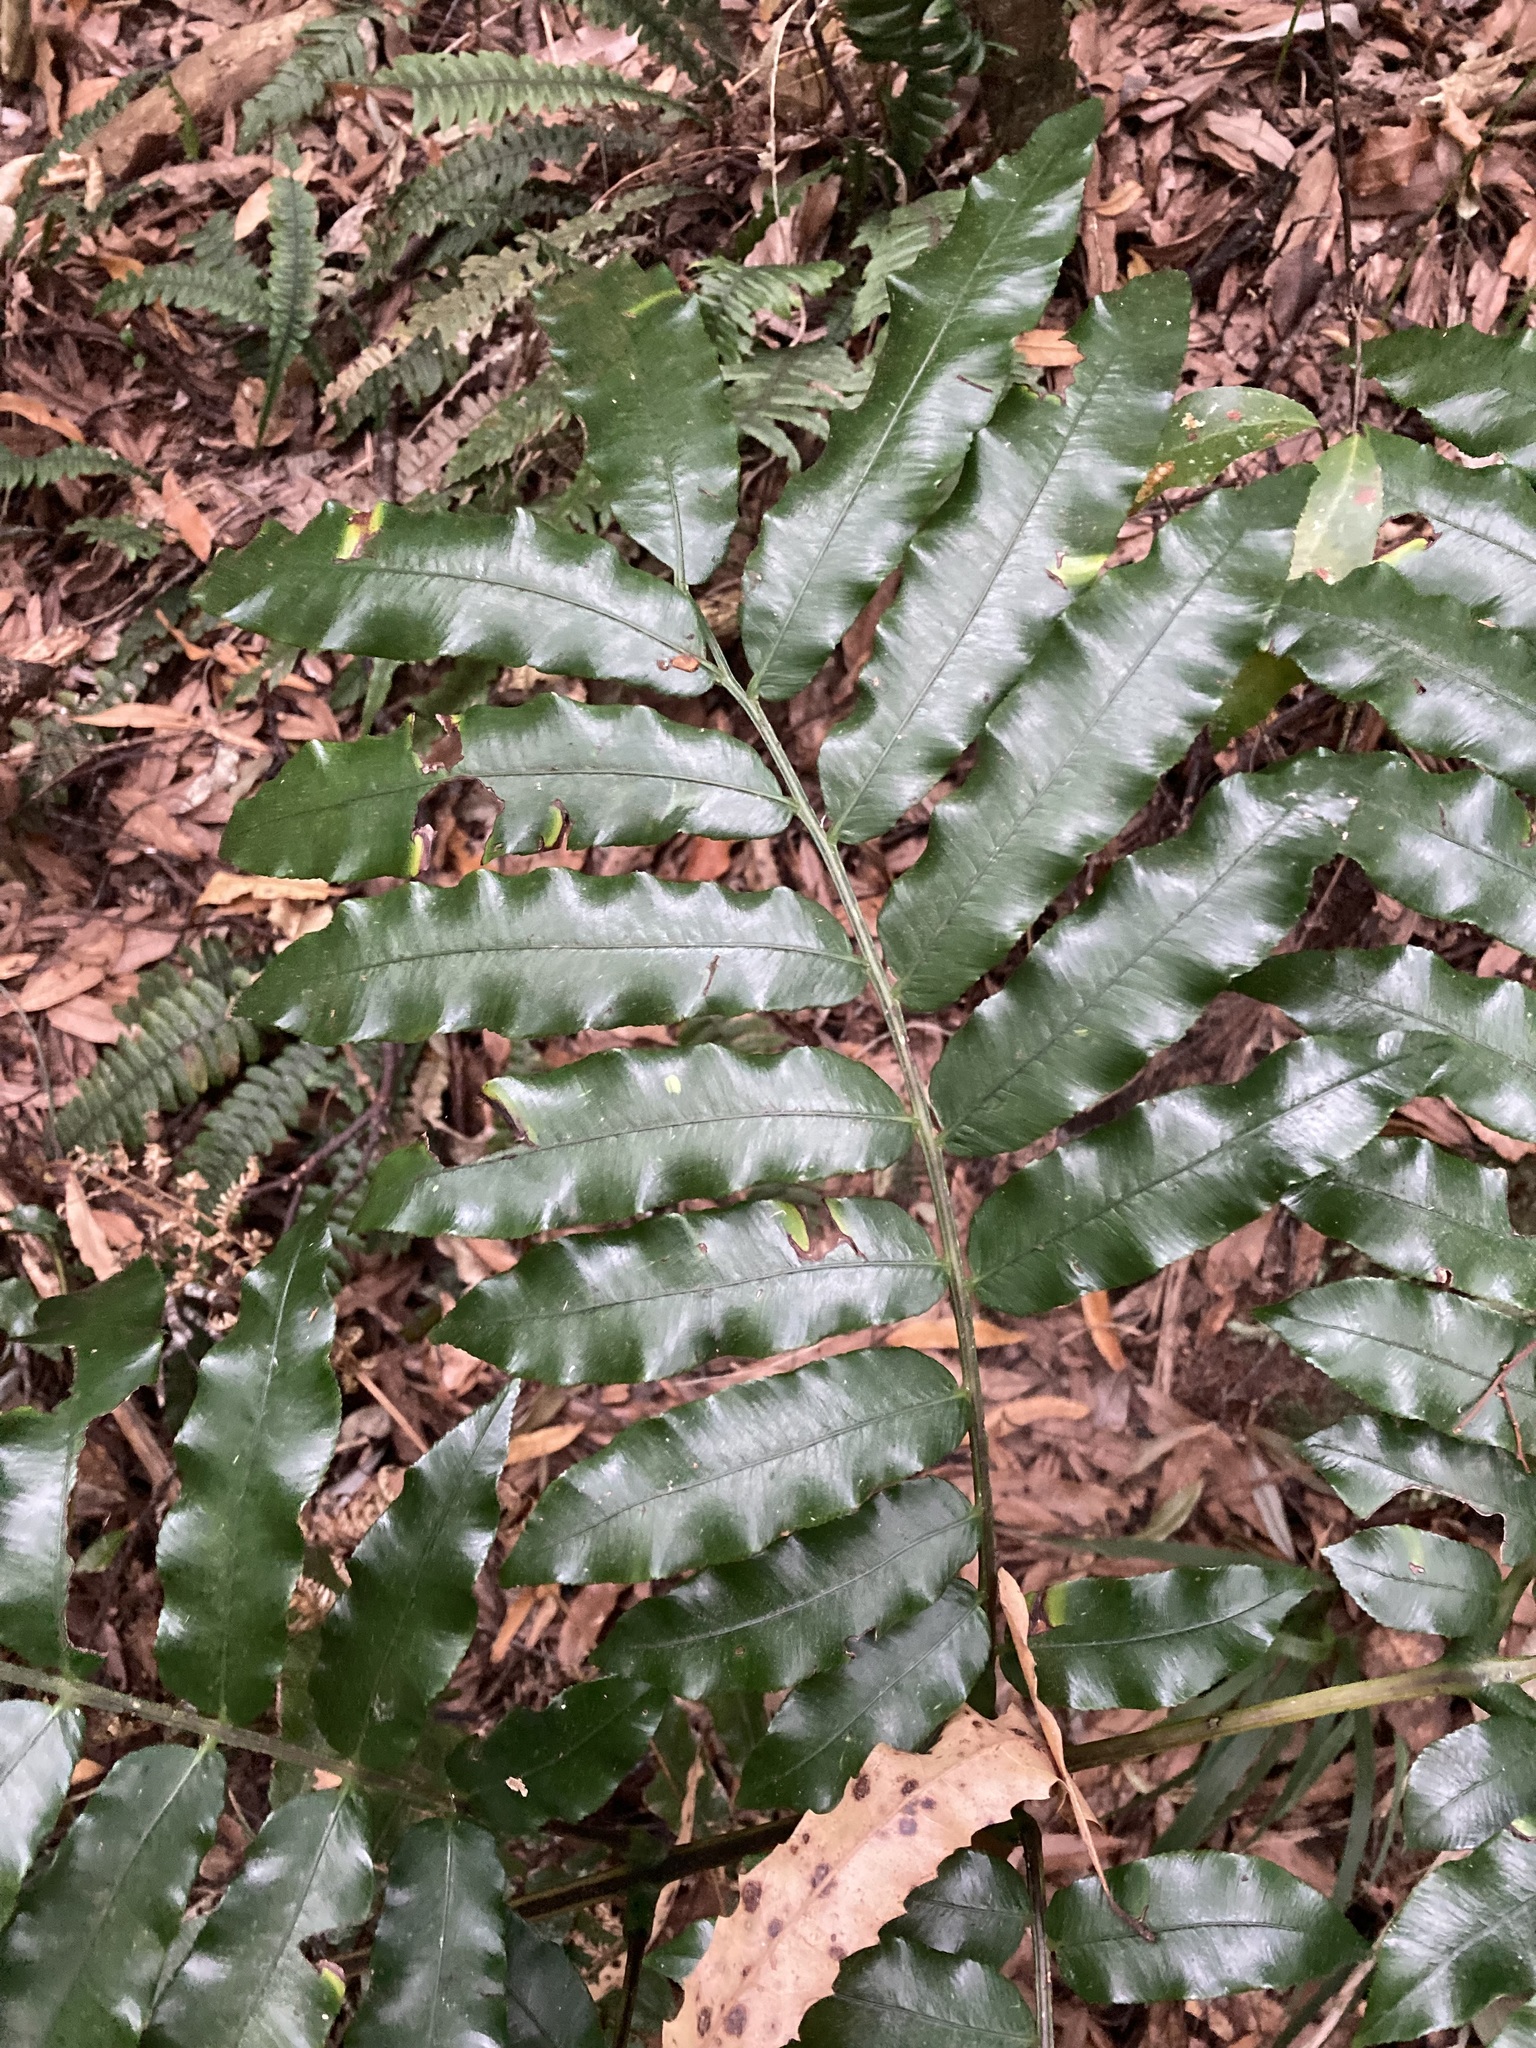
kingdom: Plantae
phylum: Tracheophyta
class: Polypodiopsida
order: Marattiales
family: Marattiaceae
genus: Ptisana
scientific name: Ptisana salicina
